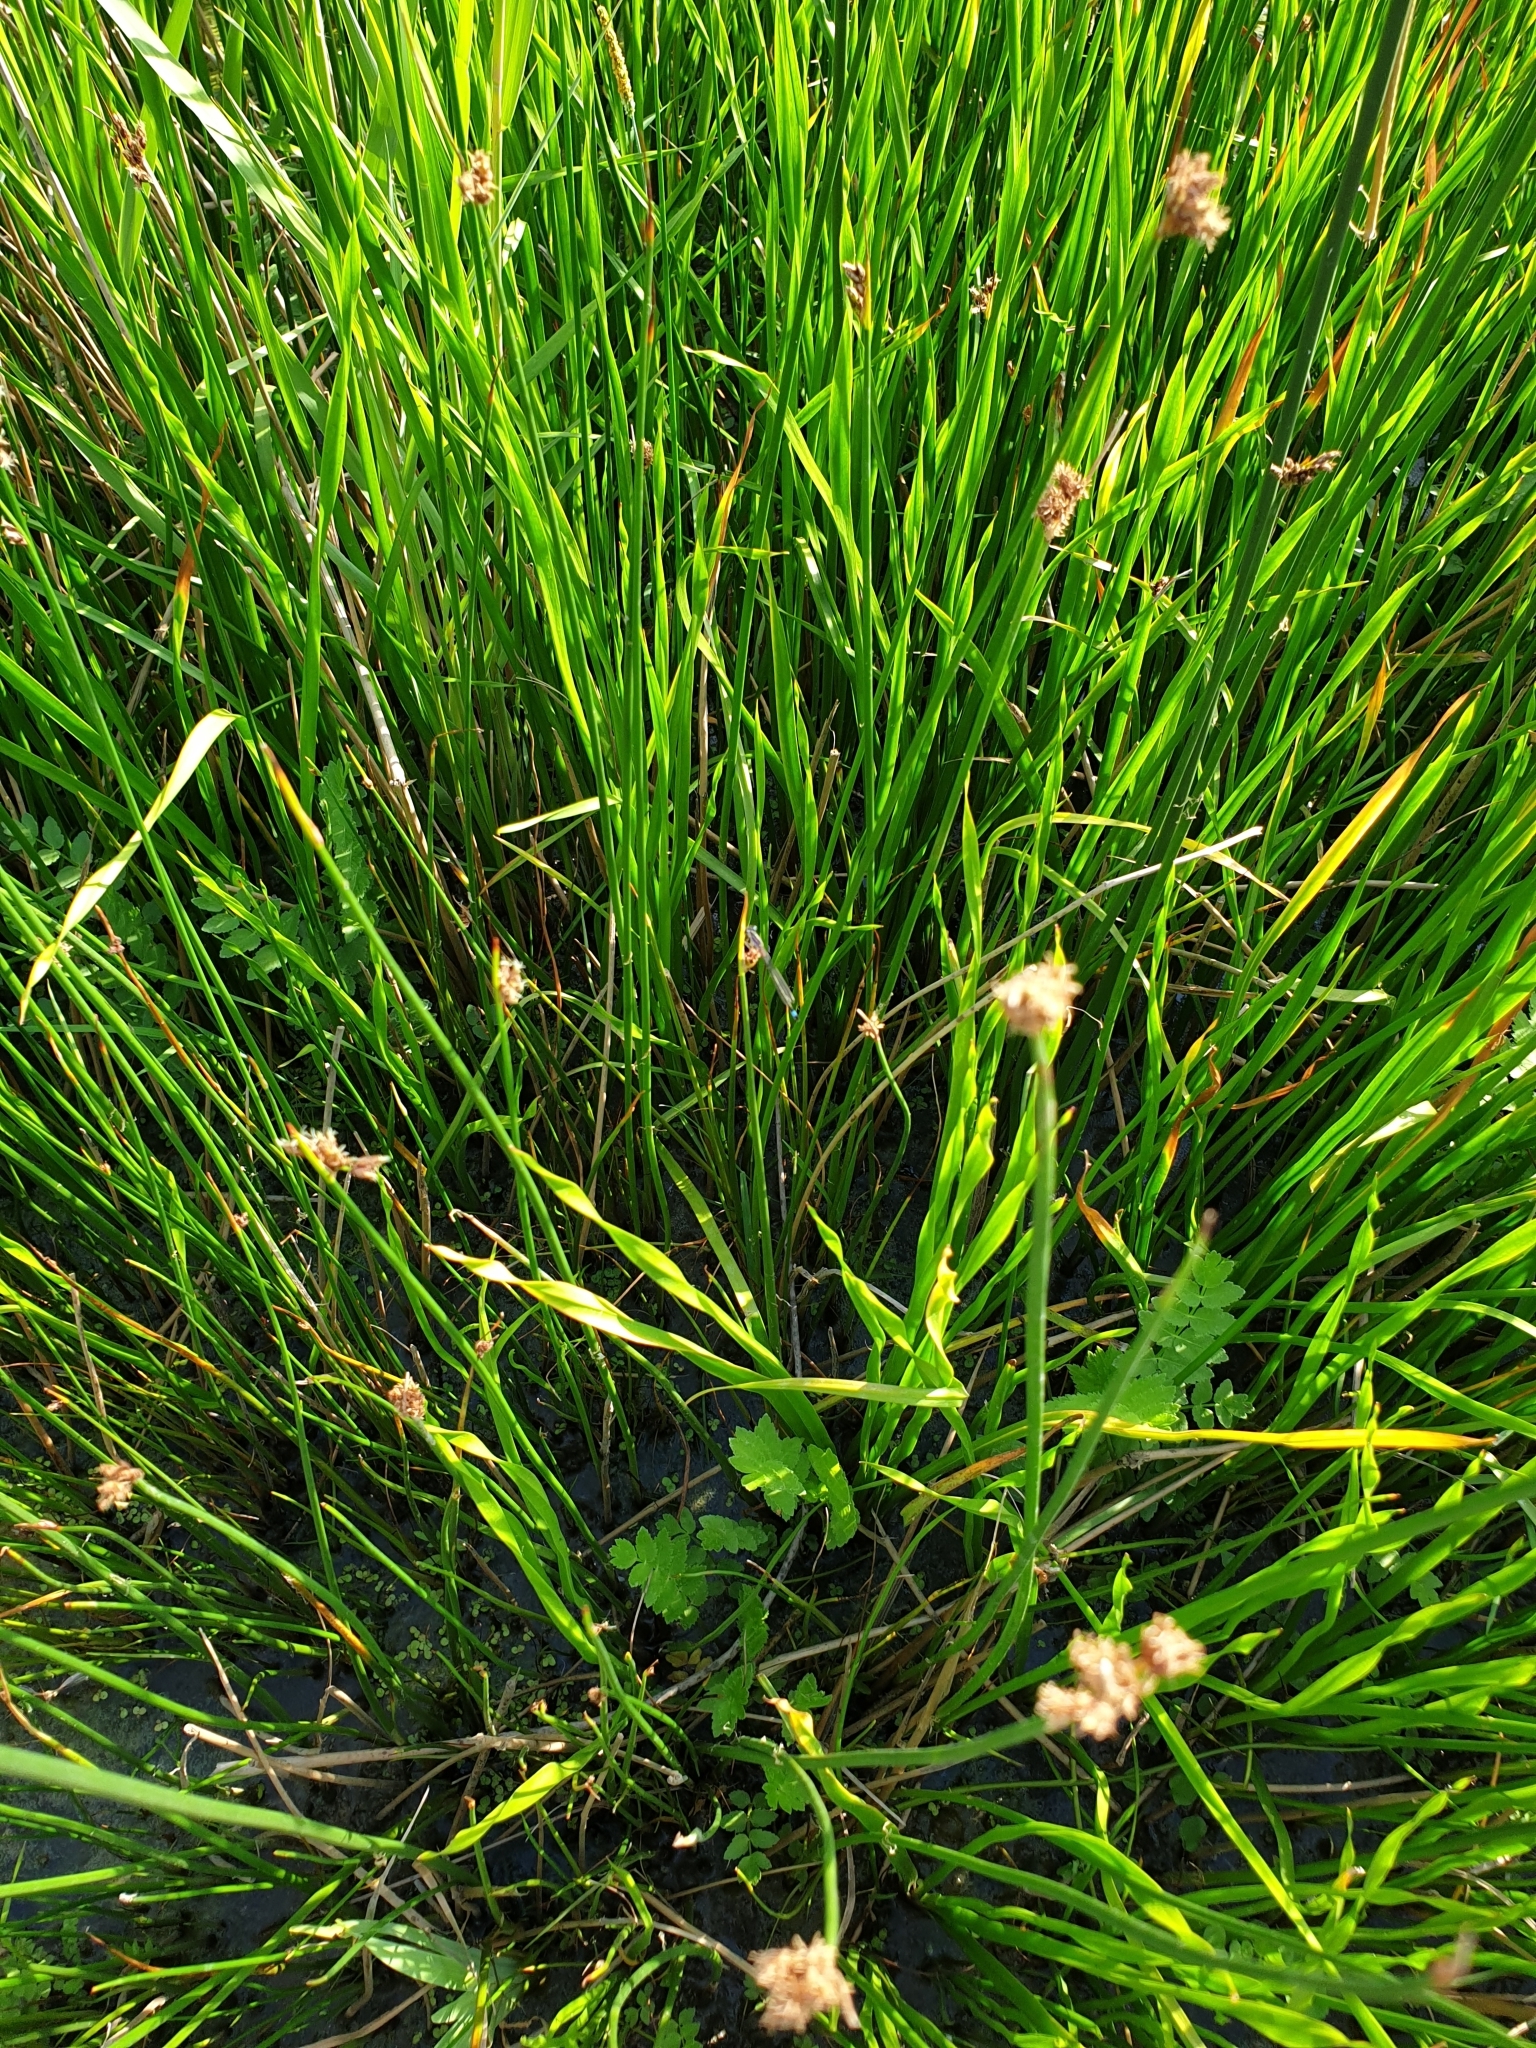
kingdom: Plantae
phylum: Tracheophyta
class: Liliopsida
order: Alismatales
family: Butomaceae
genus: Butomus
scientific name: Butomus umbellatus
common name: Flowering-rush
